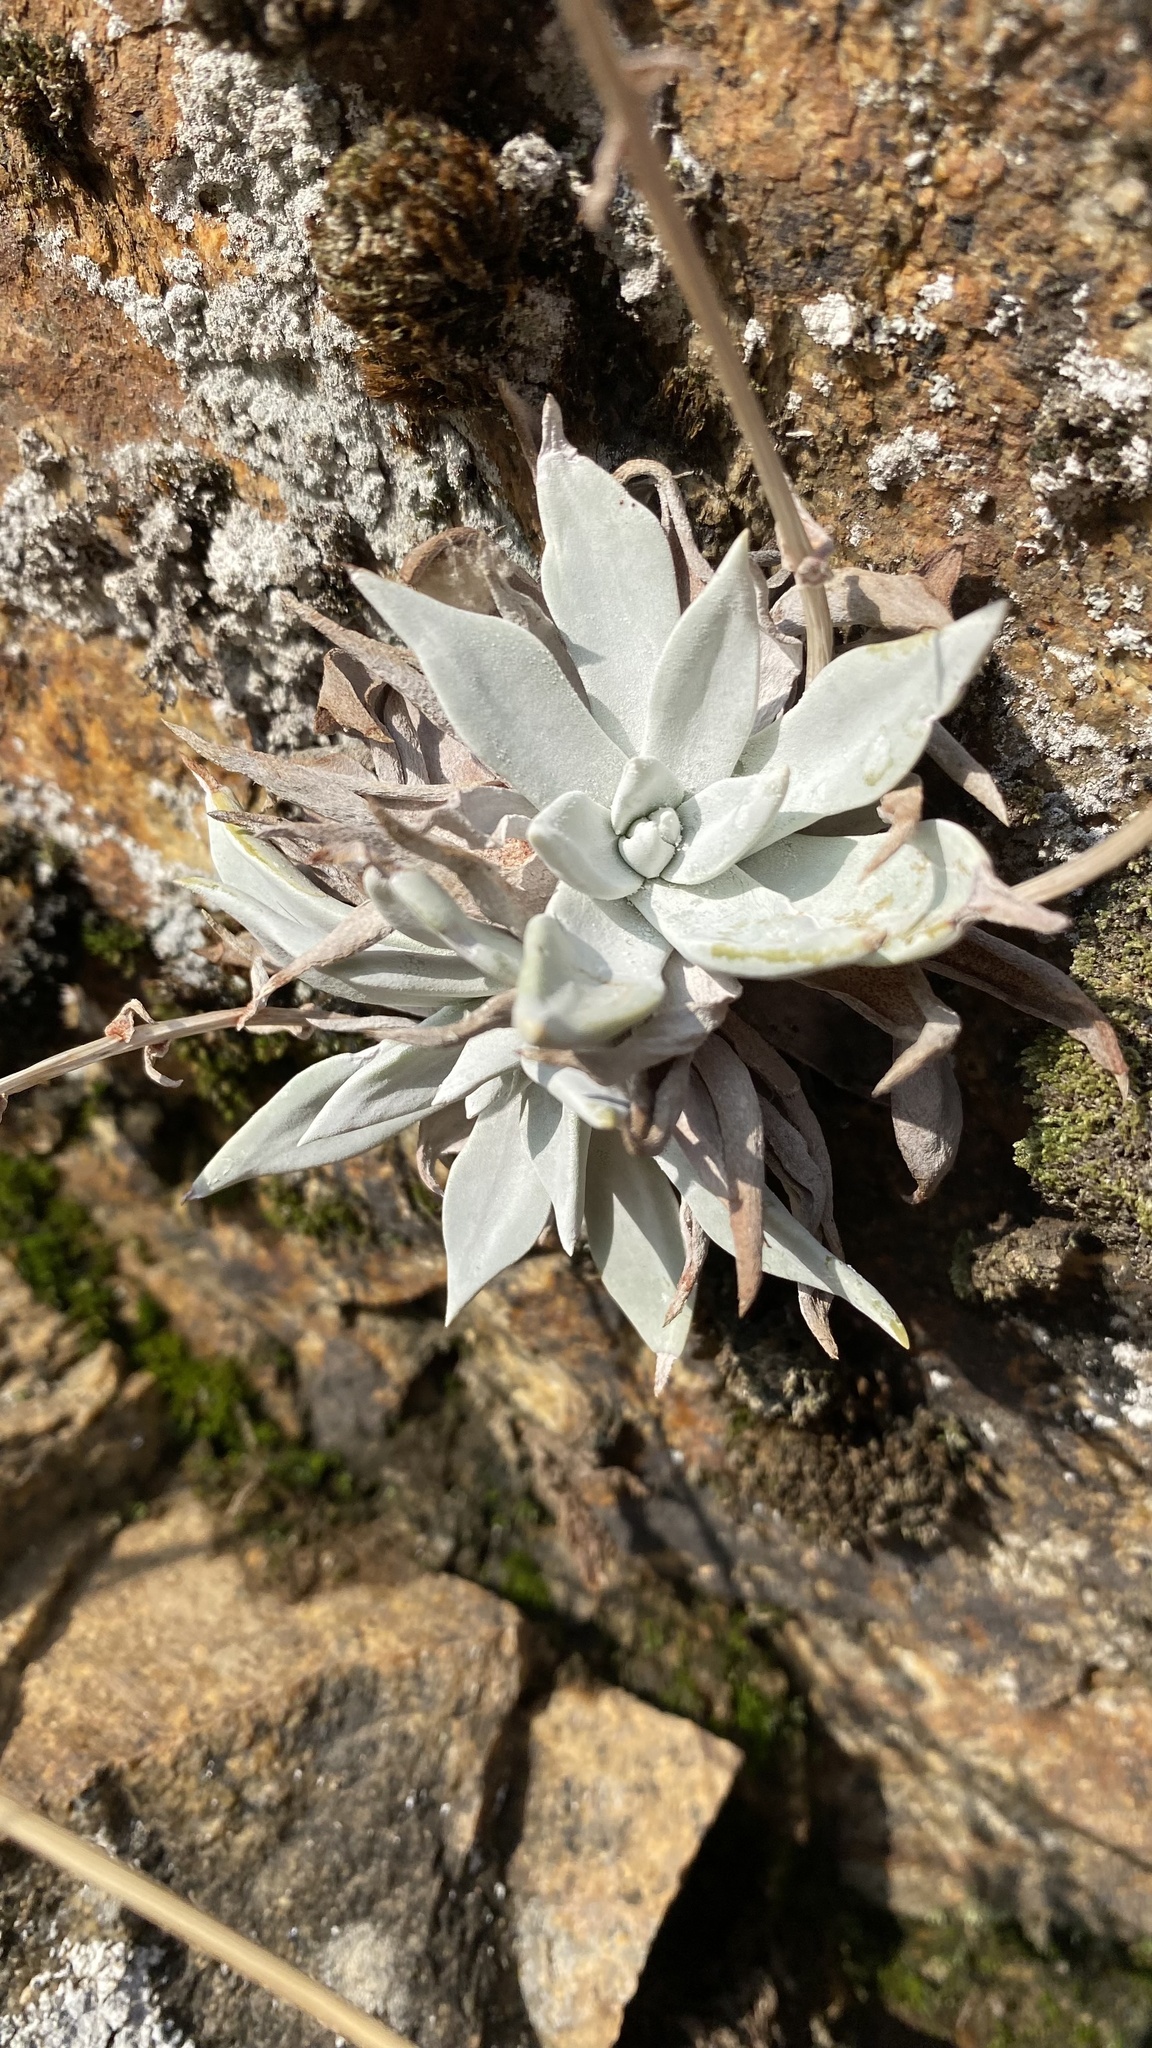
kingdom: Plantae
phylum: Tracheophyta
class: Magnoliopsida
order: Saxifragales
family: Crassulaceae
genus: Dudleya
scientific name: Dudleya cymosa
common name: Canyon dudleya
